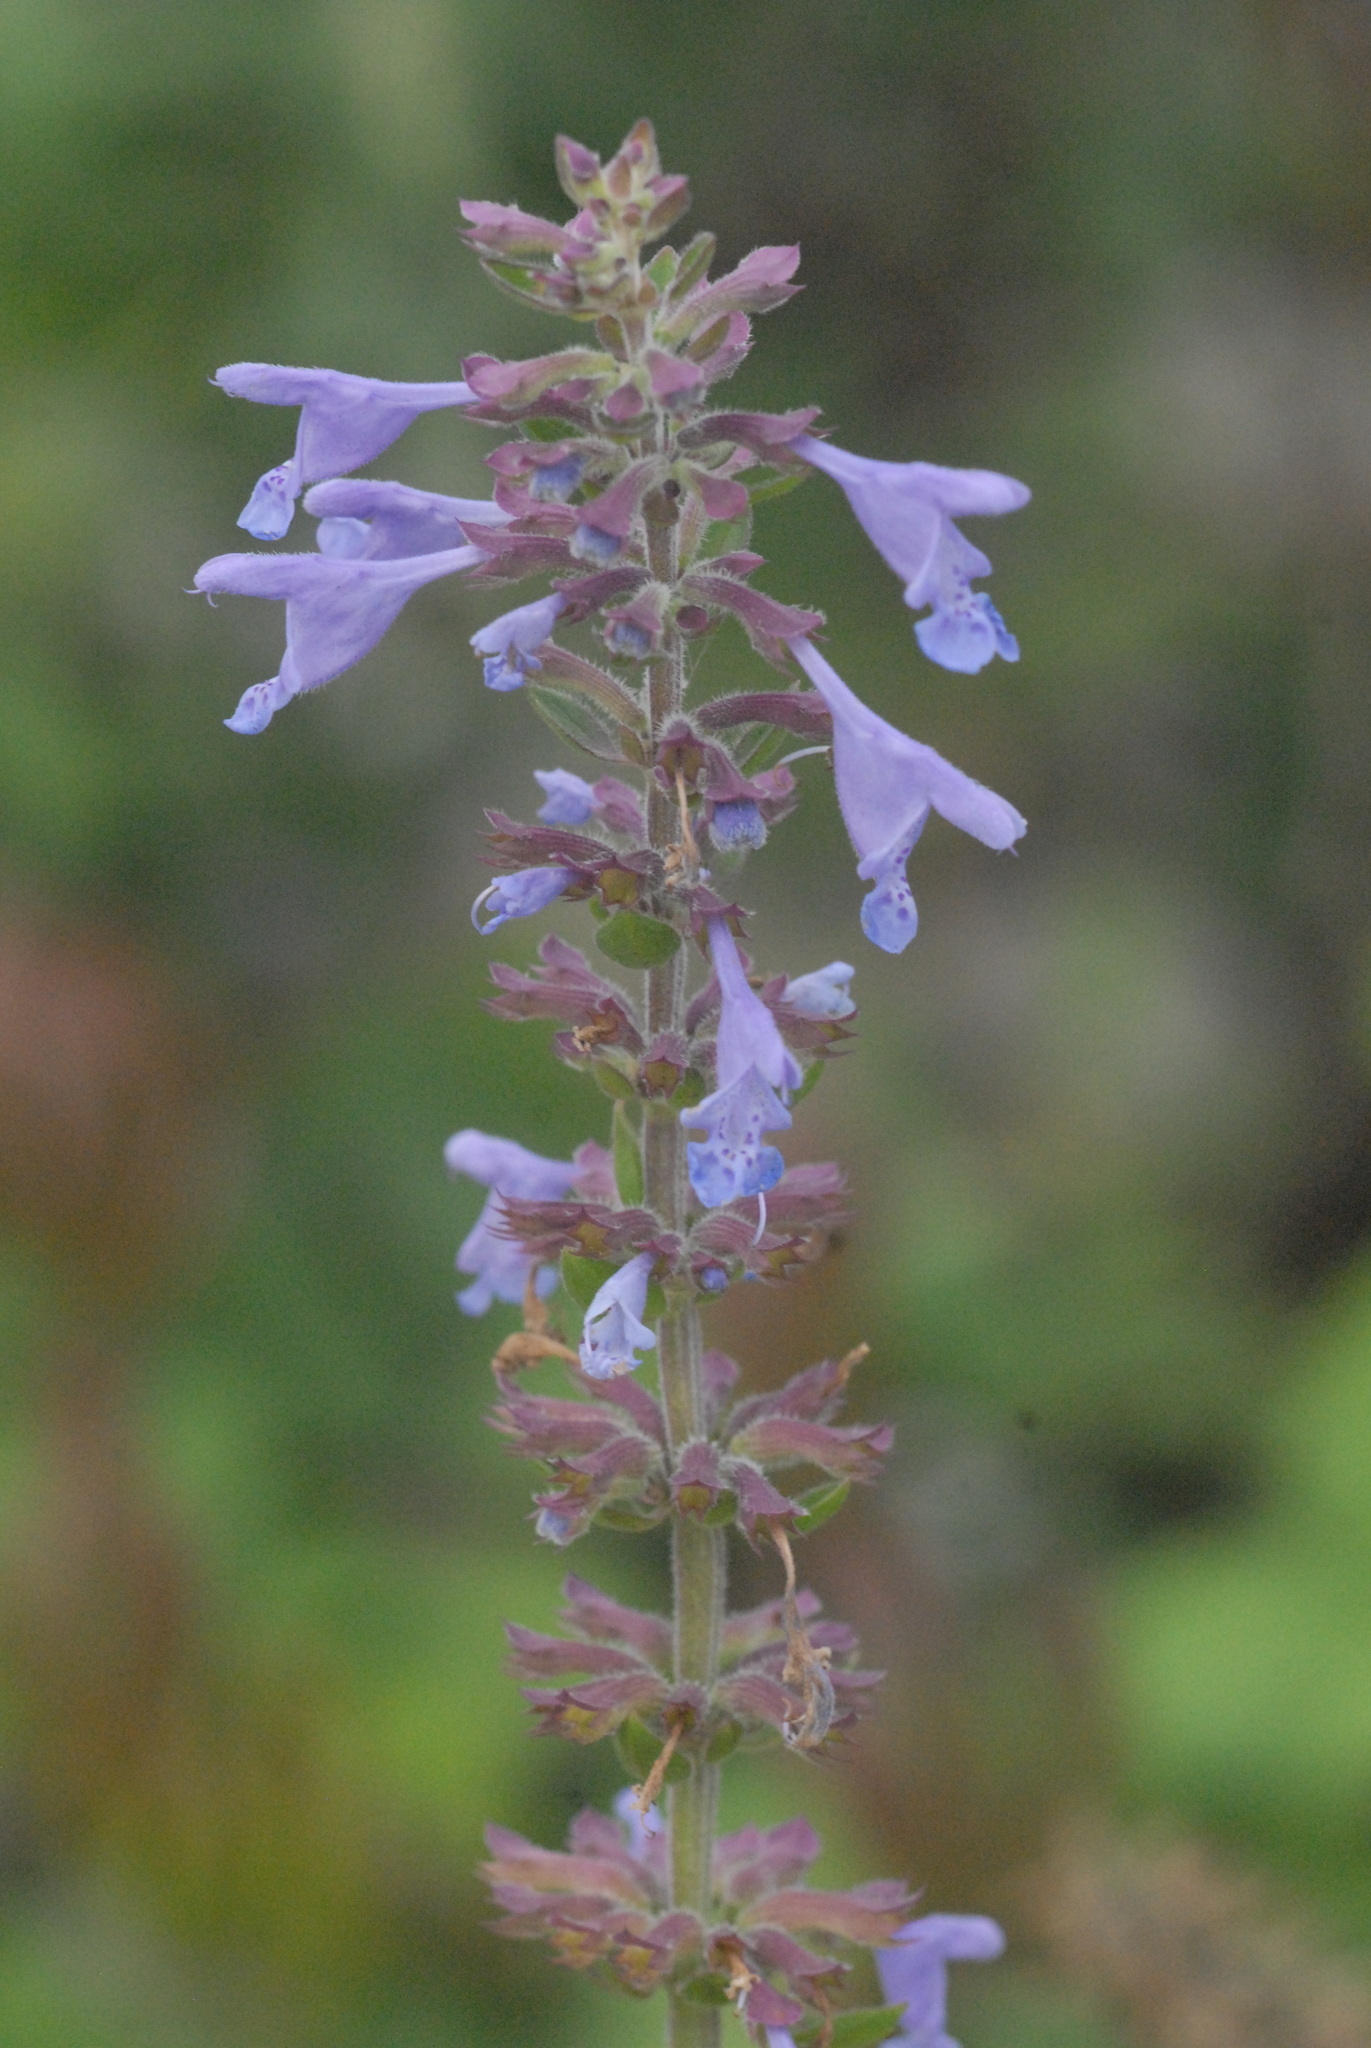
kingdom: Plantae
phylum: Tracheophyta
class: Magnoliopsida
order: Lamiales
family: Lamiaceae
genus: Dracocephalum
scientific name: Dracocephalum nutans
